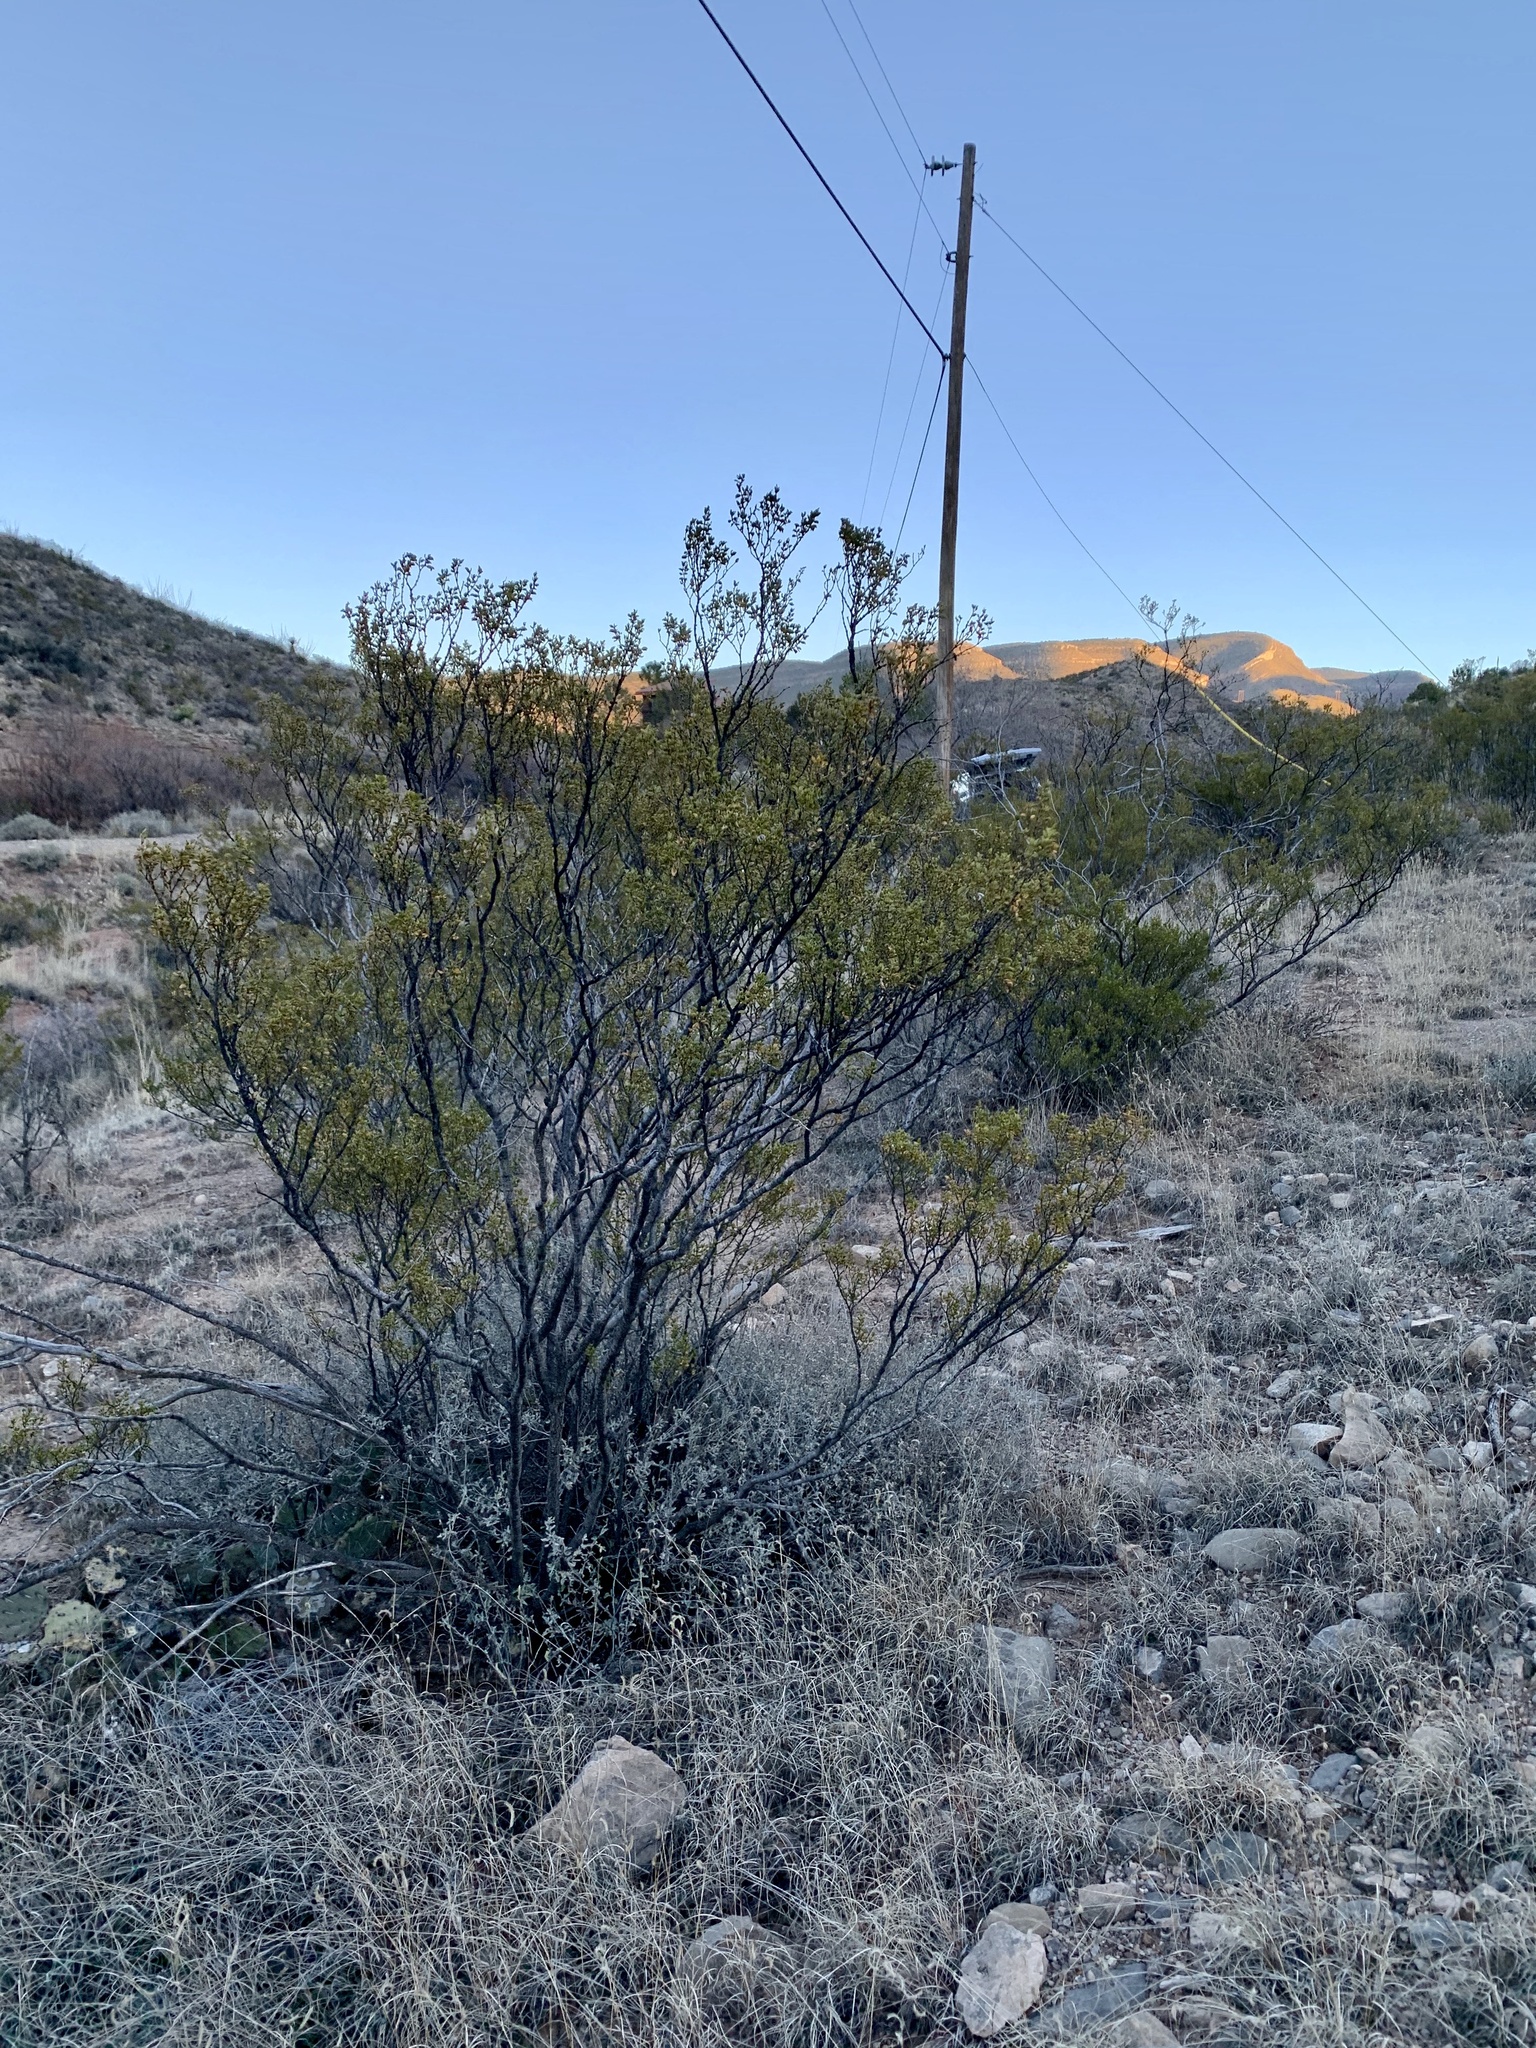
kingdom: Plantae
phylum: Tracheophyta
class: Magnoliopsida
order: Zygophyllales
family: Zygophyllaceae
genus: Larrea
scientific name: Larrea tridentata
